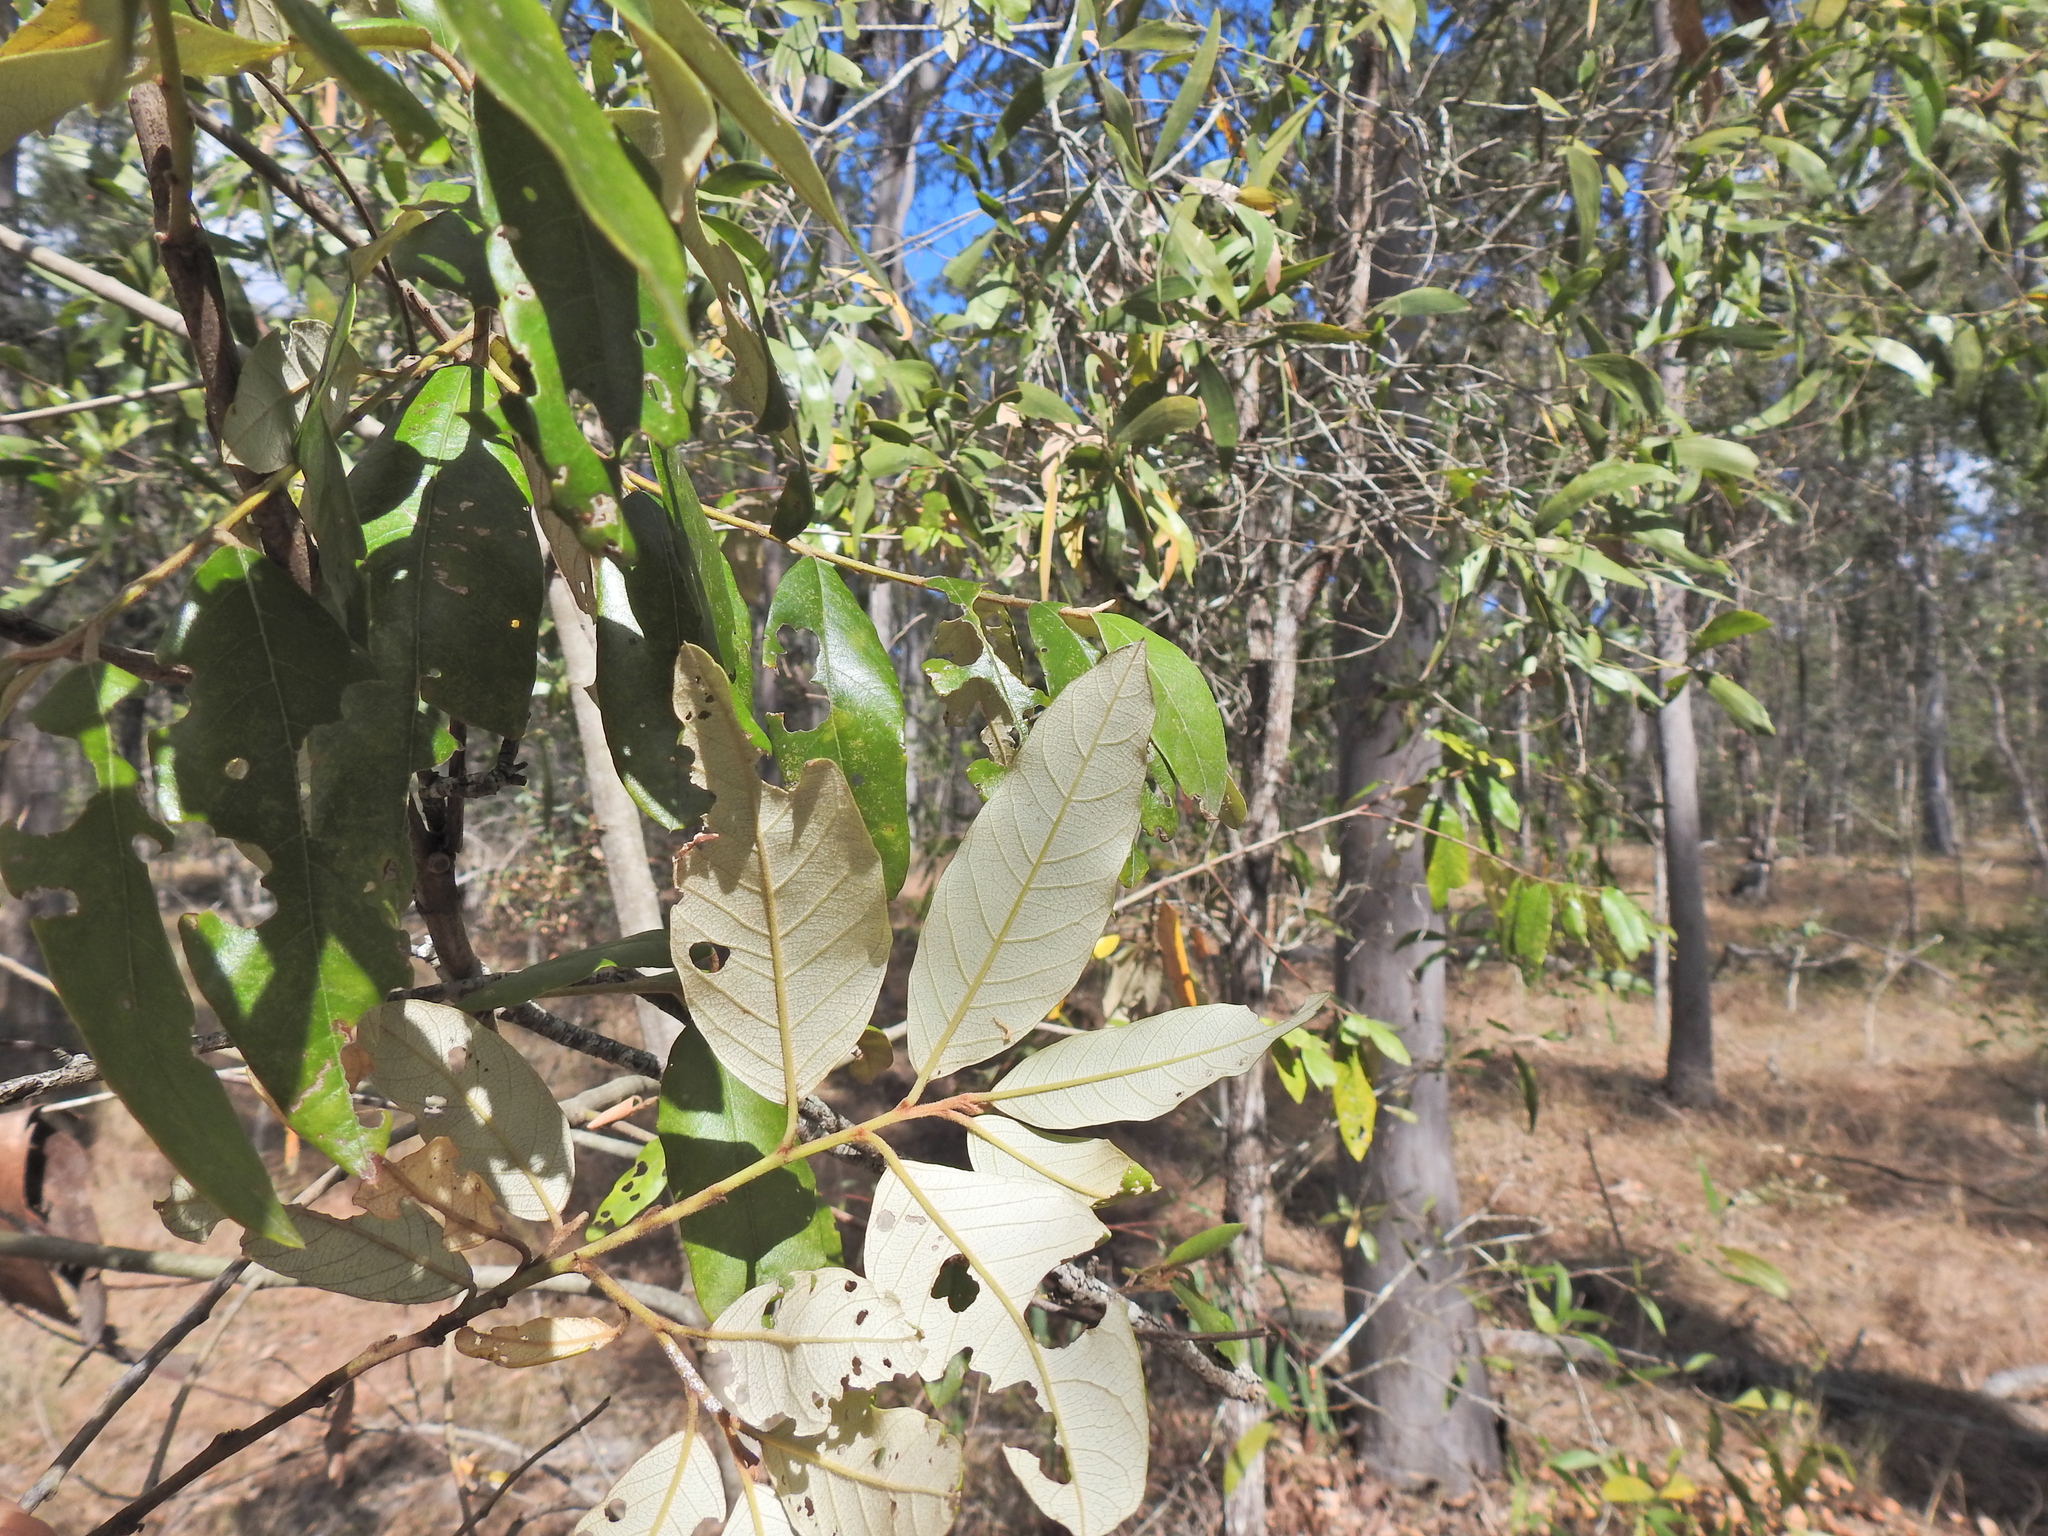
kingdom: Plantae
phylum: Tracheophyta
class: Magnoliopsida
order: Rosales
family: Rhamnaceae
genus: Alphitonia
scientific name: Alphitonia excelsa
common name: Red ash
